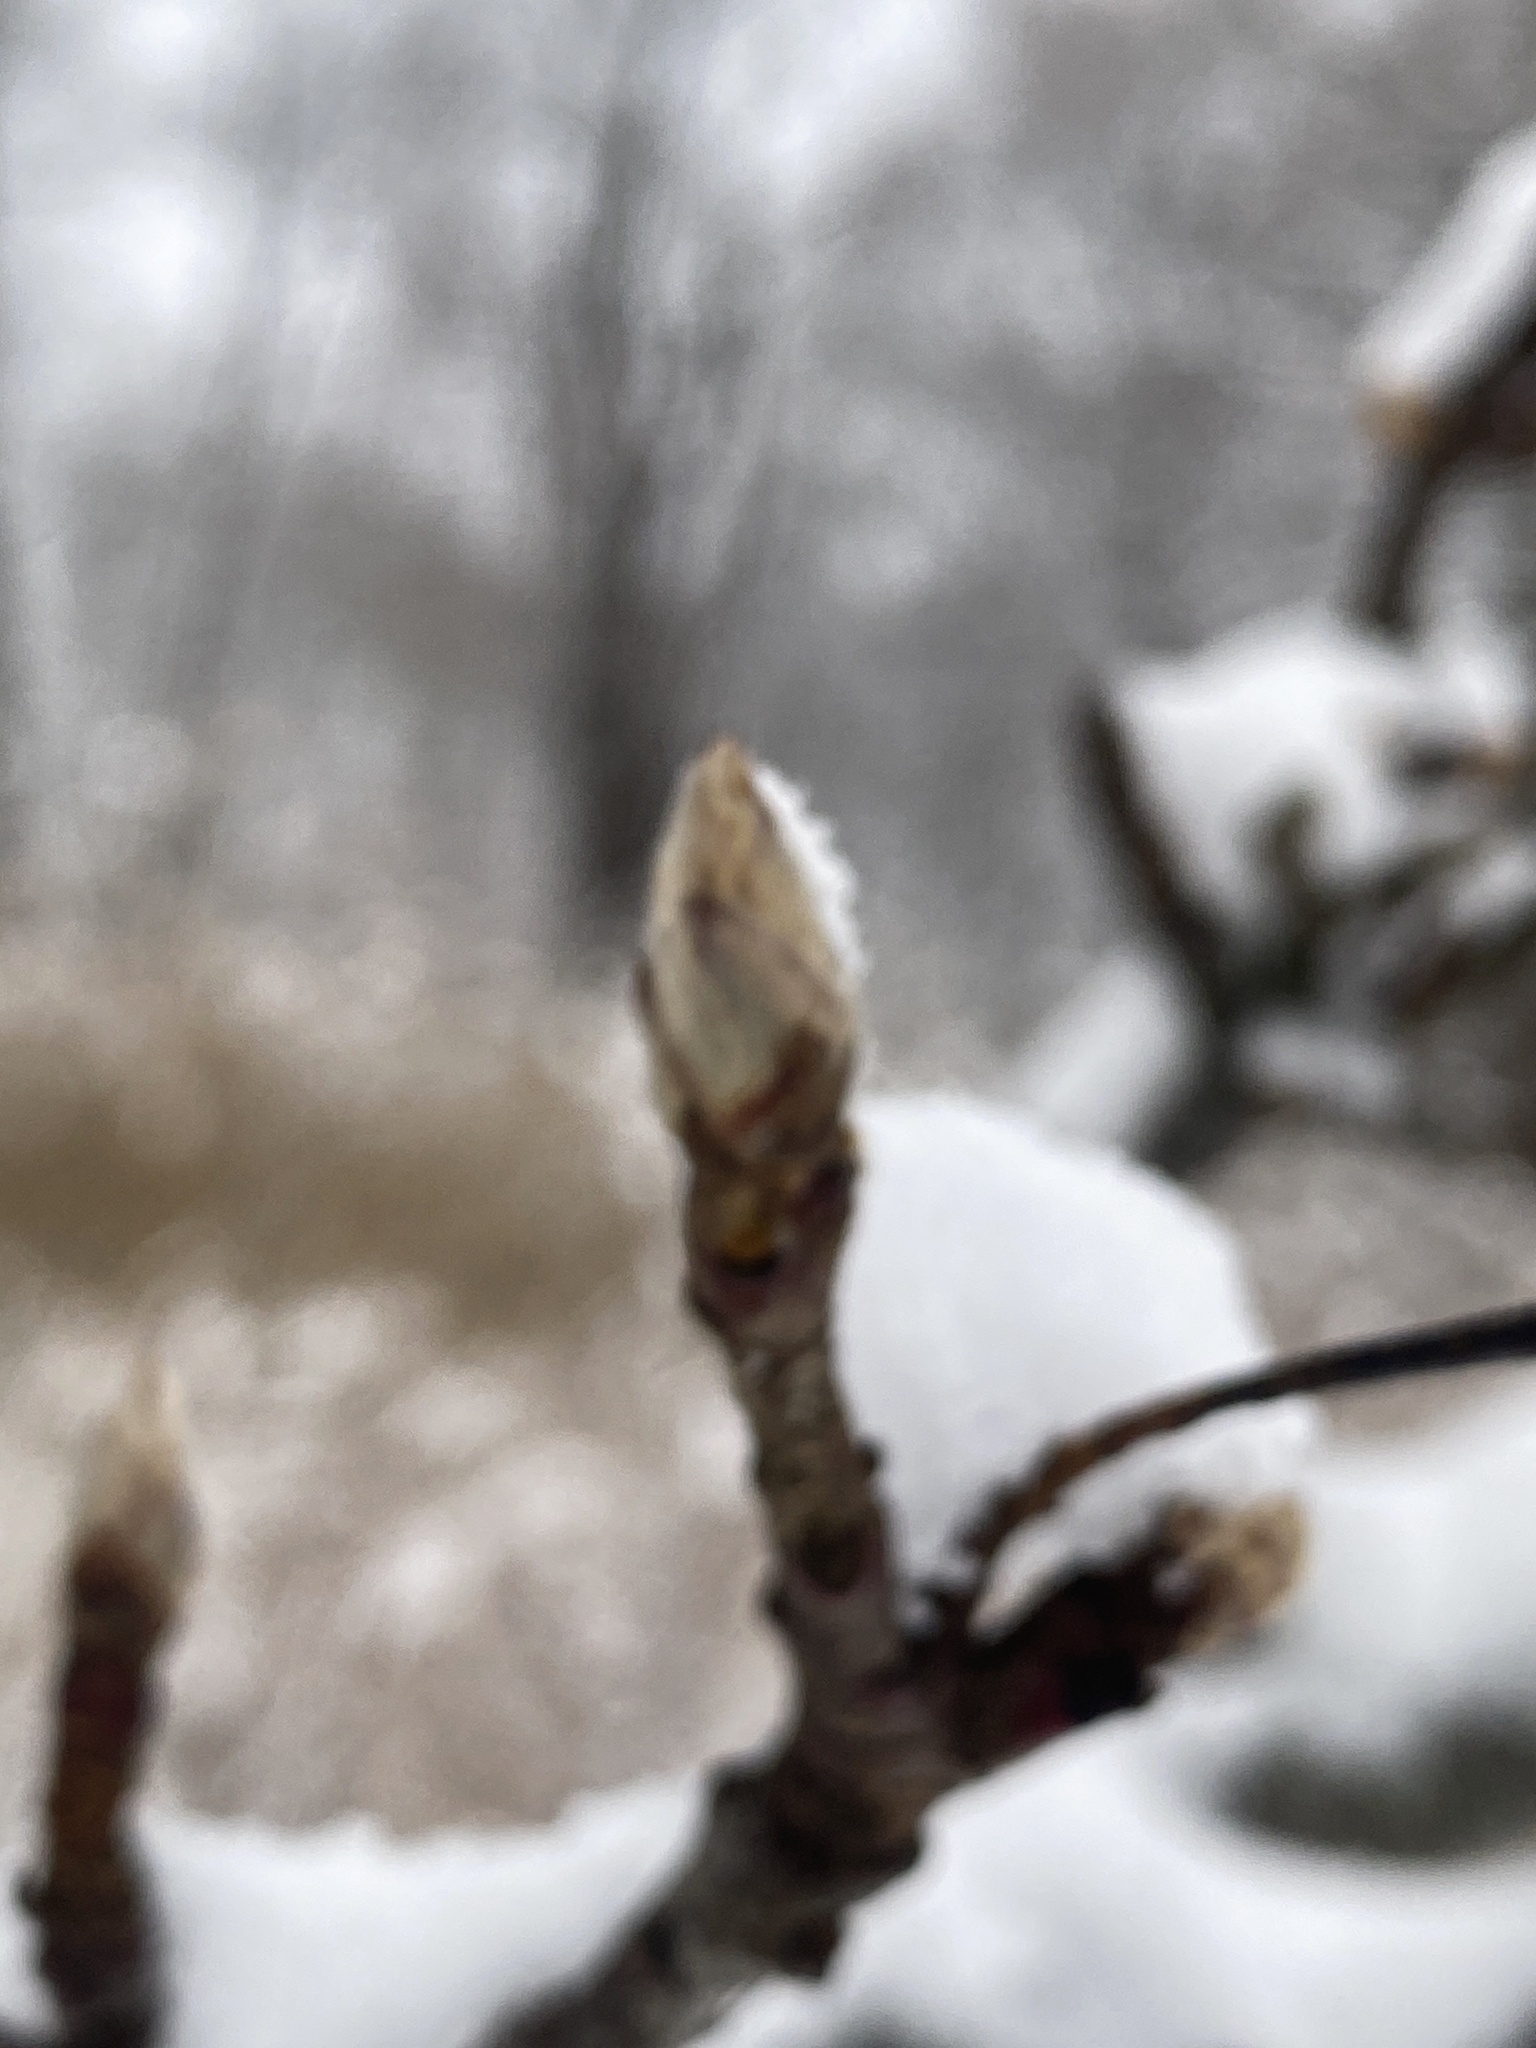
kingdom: Plantae
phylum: Tracheophyta
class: Magnoliopsida
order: Rosales
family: Rosaceae
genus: Pyrus
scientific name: Pyrus calleryana
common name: Callery pear
